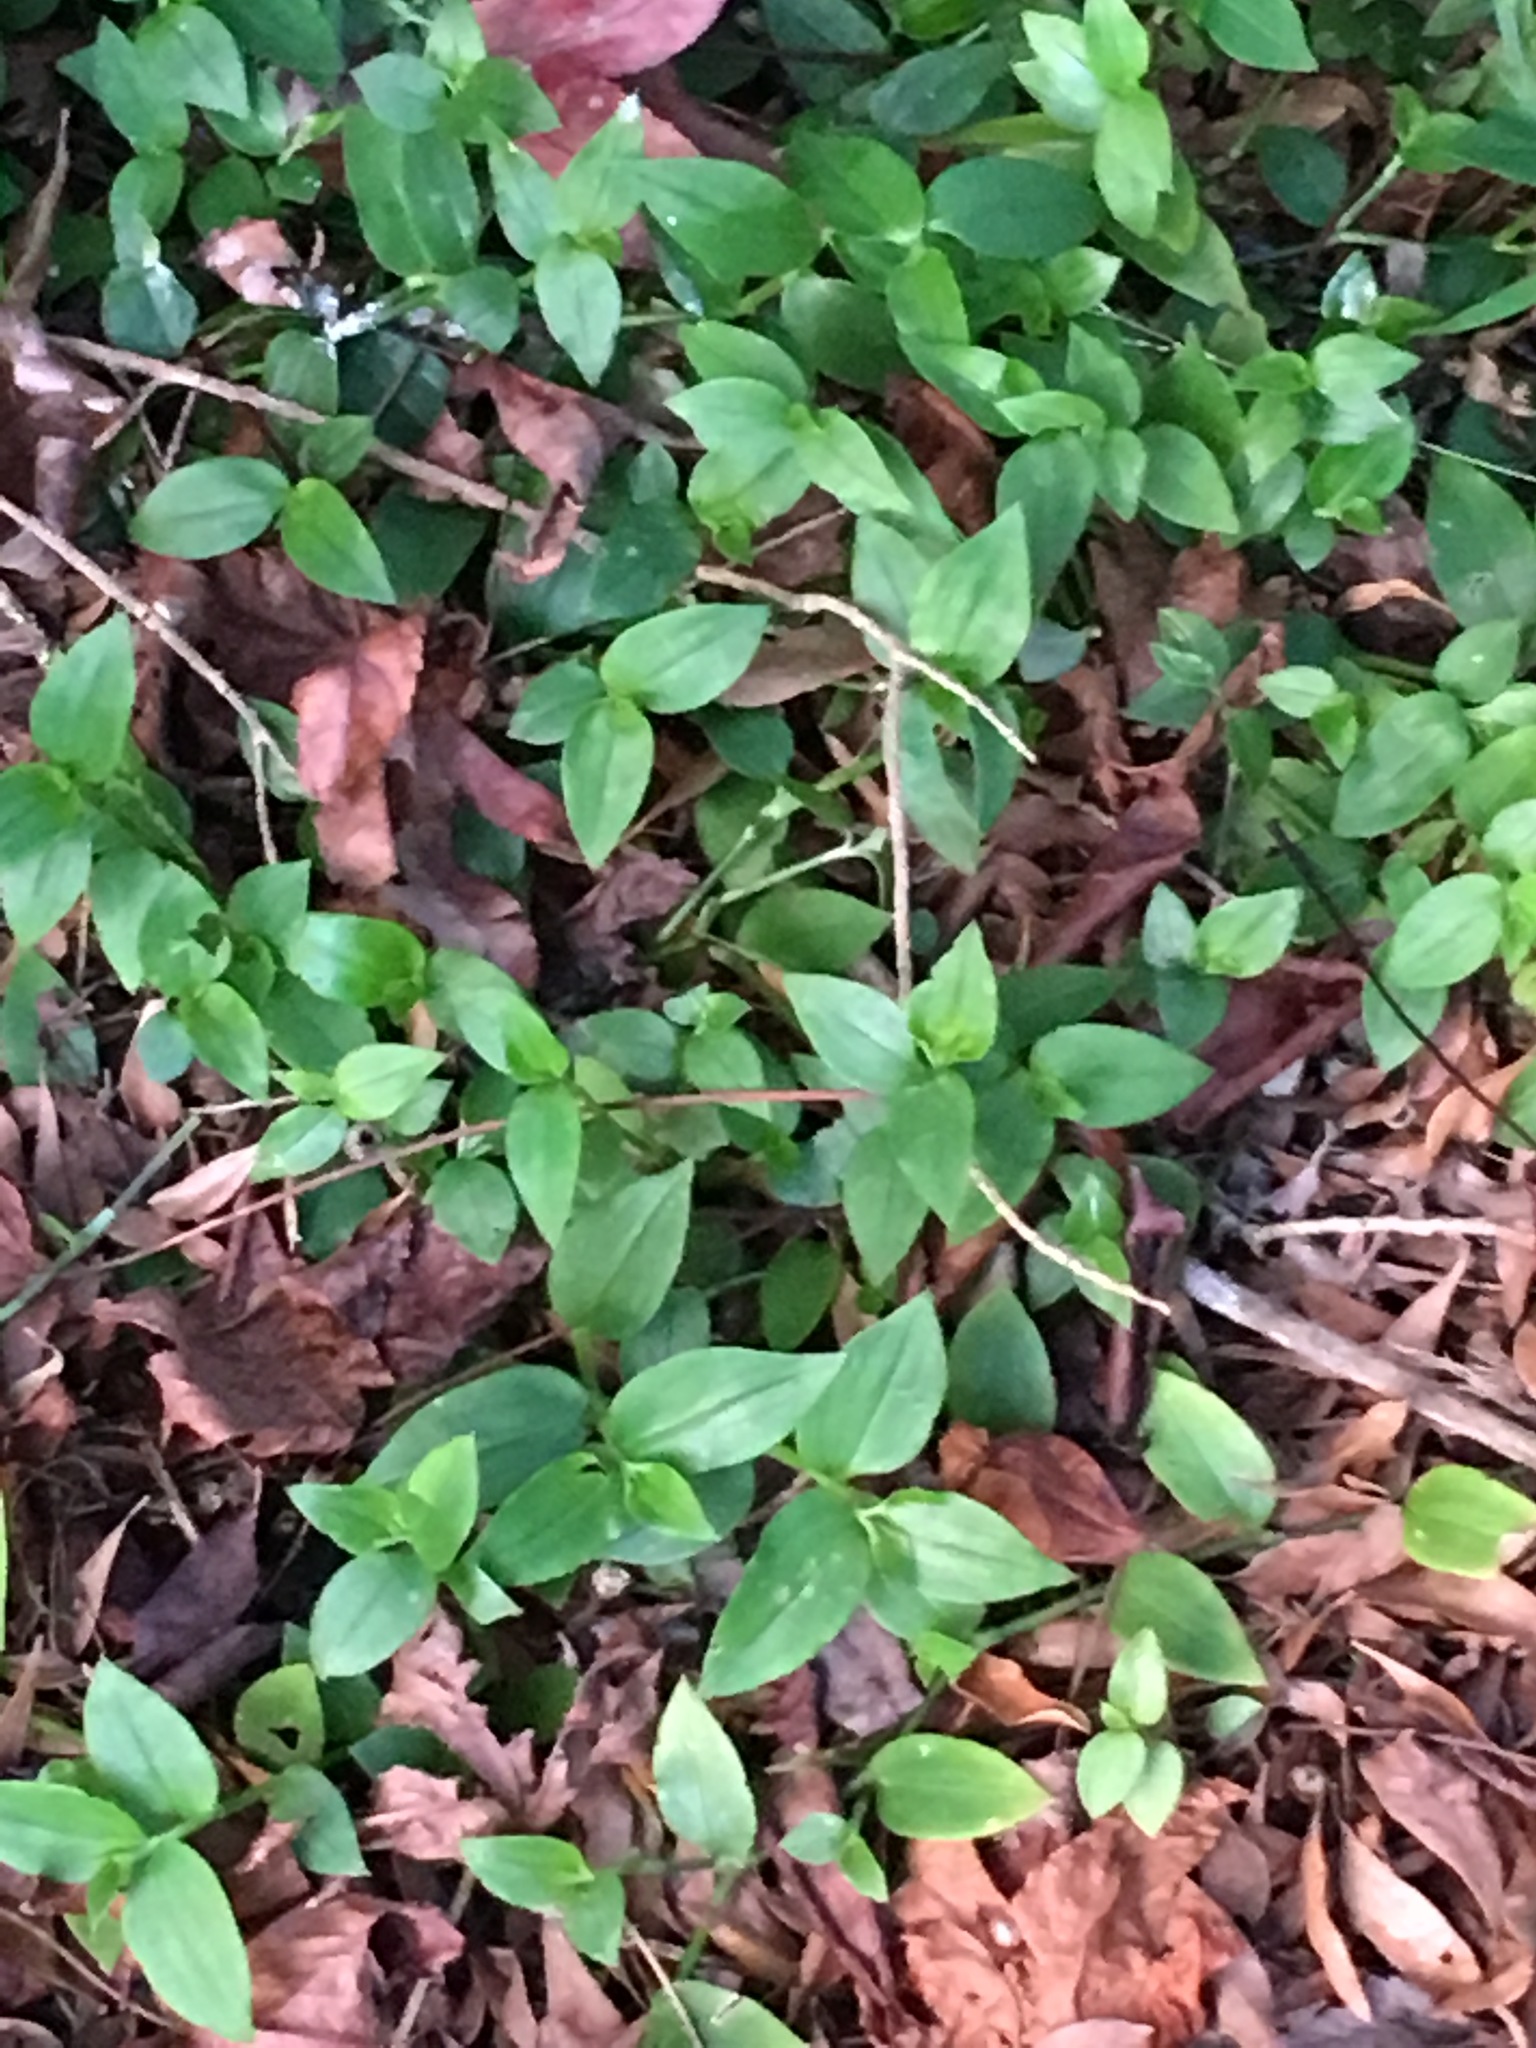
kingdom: Plantae
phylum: Tracheophyta
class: Liliopsida
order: Commelinales
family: Commelinaceae
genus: Tradescantia
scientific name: Tradescantia fluminensis
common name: Wandering-jew
